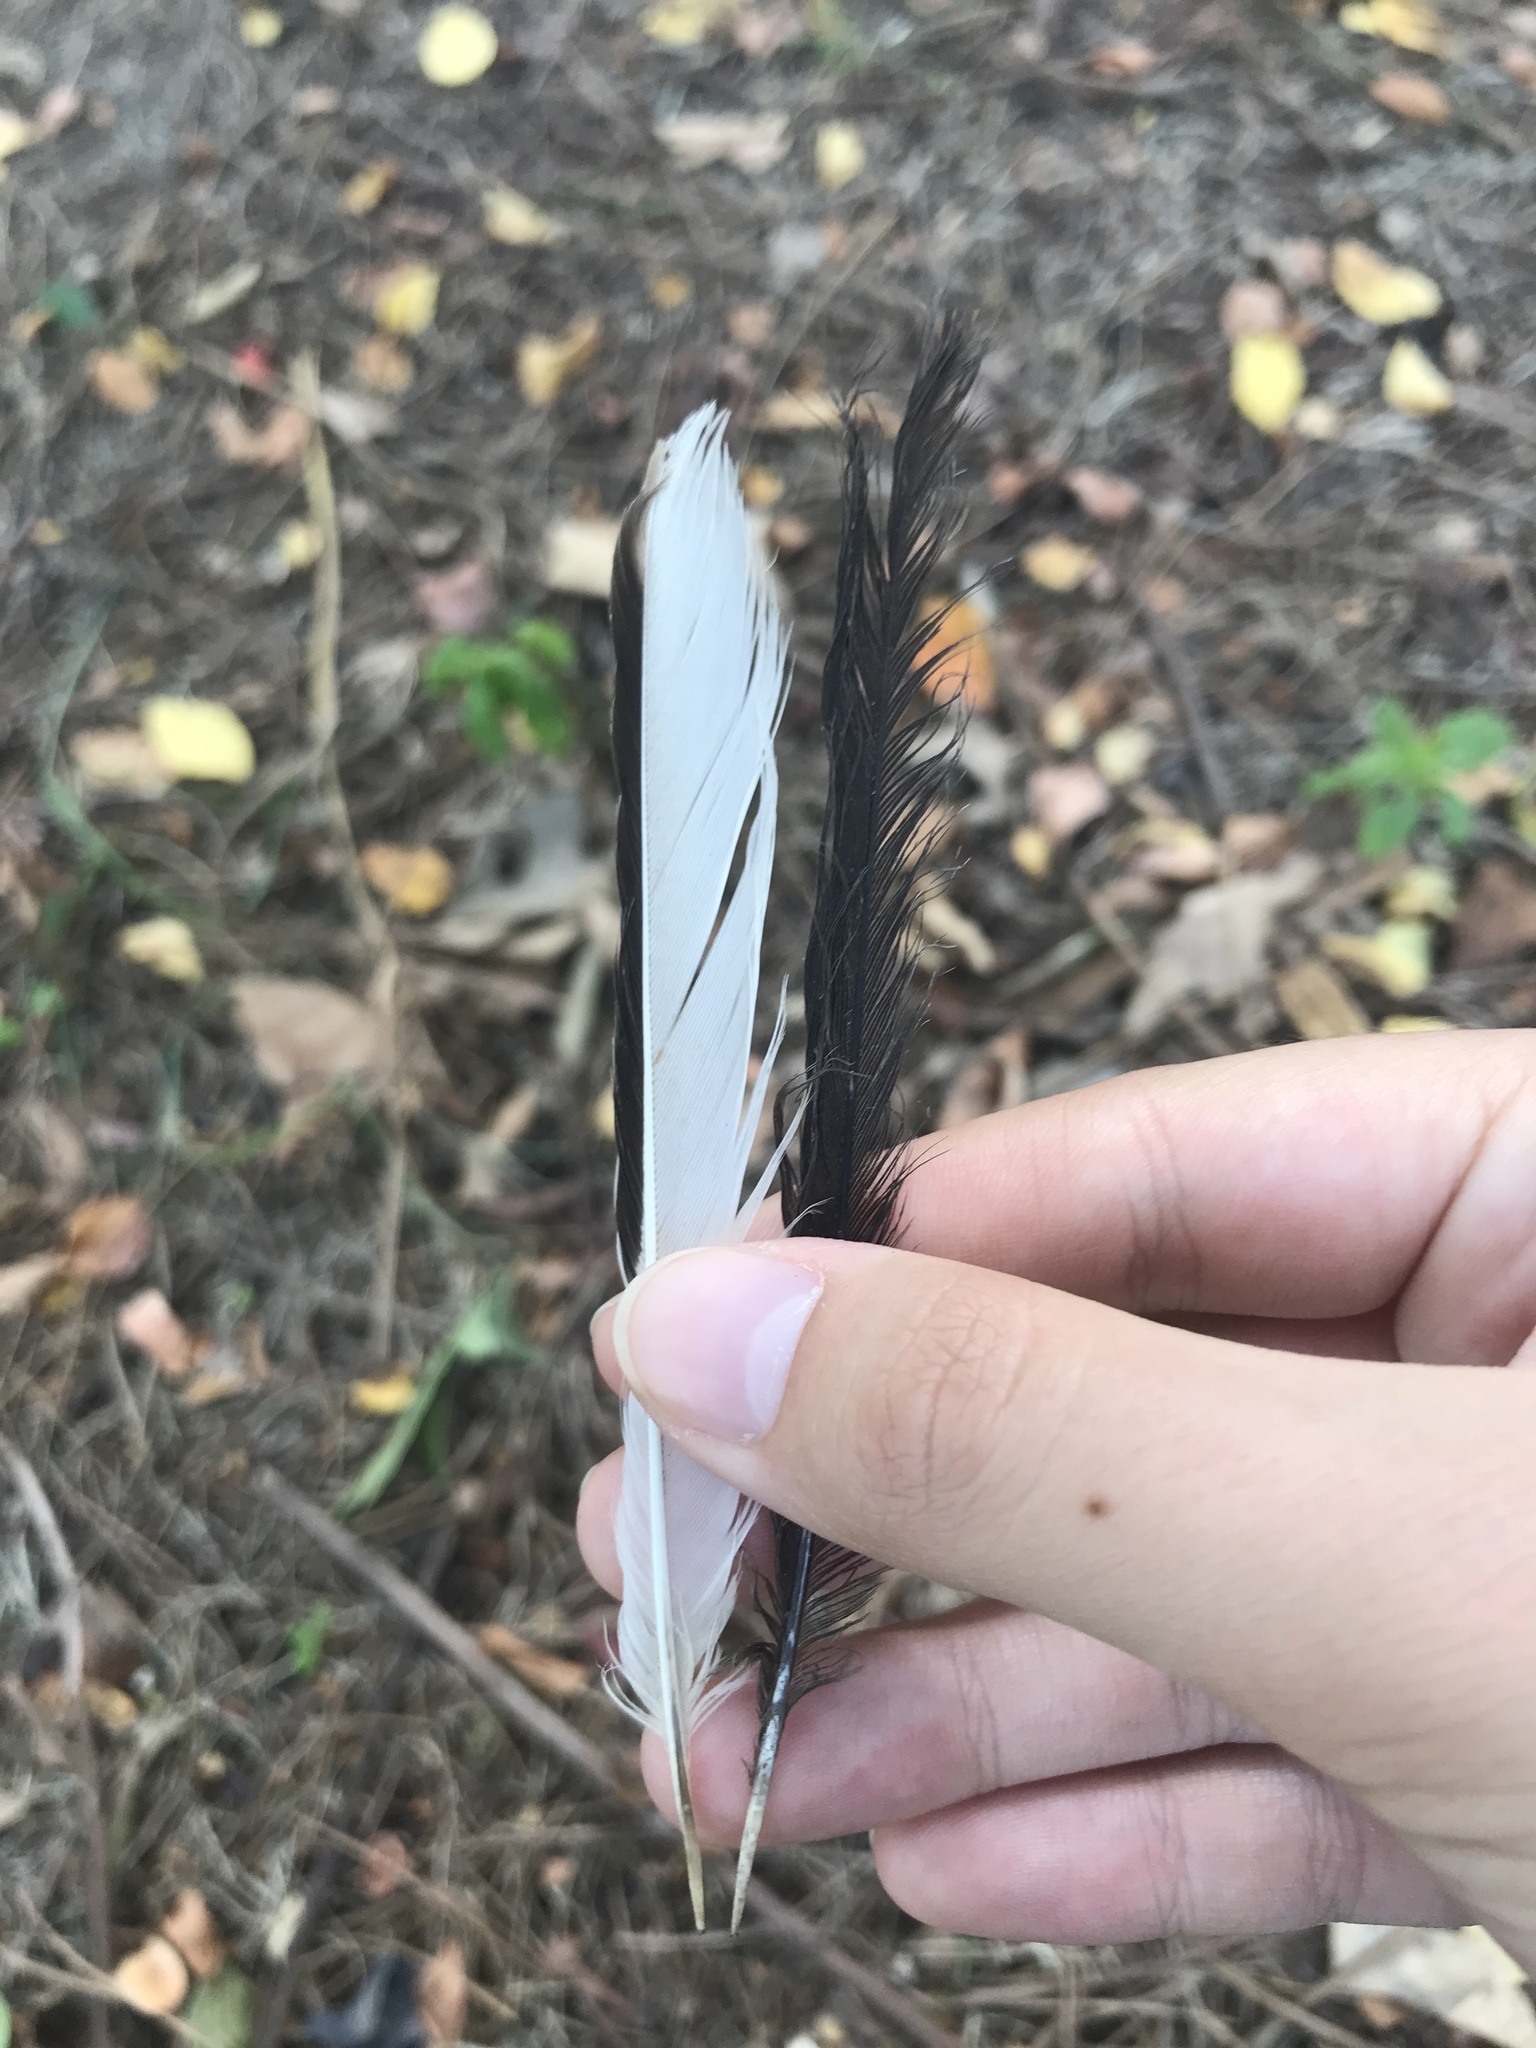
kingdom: Animalia
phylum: Chordata
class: Aves
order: Passeriformes
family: Mimidae
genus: Mimus
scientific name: Mimus polyglottos
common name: Northern mockingbird
